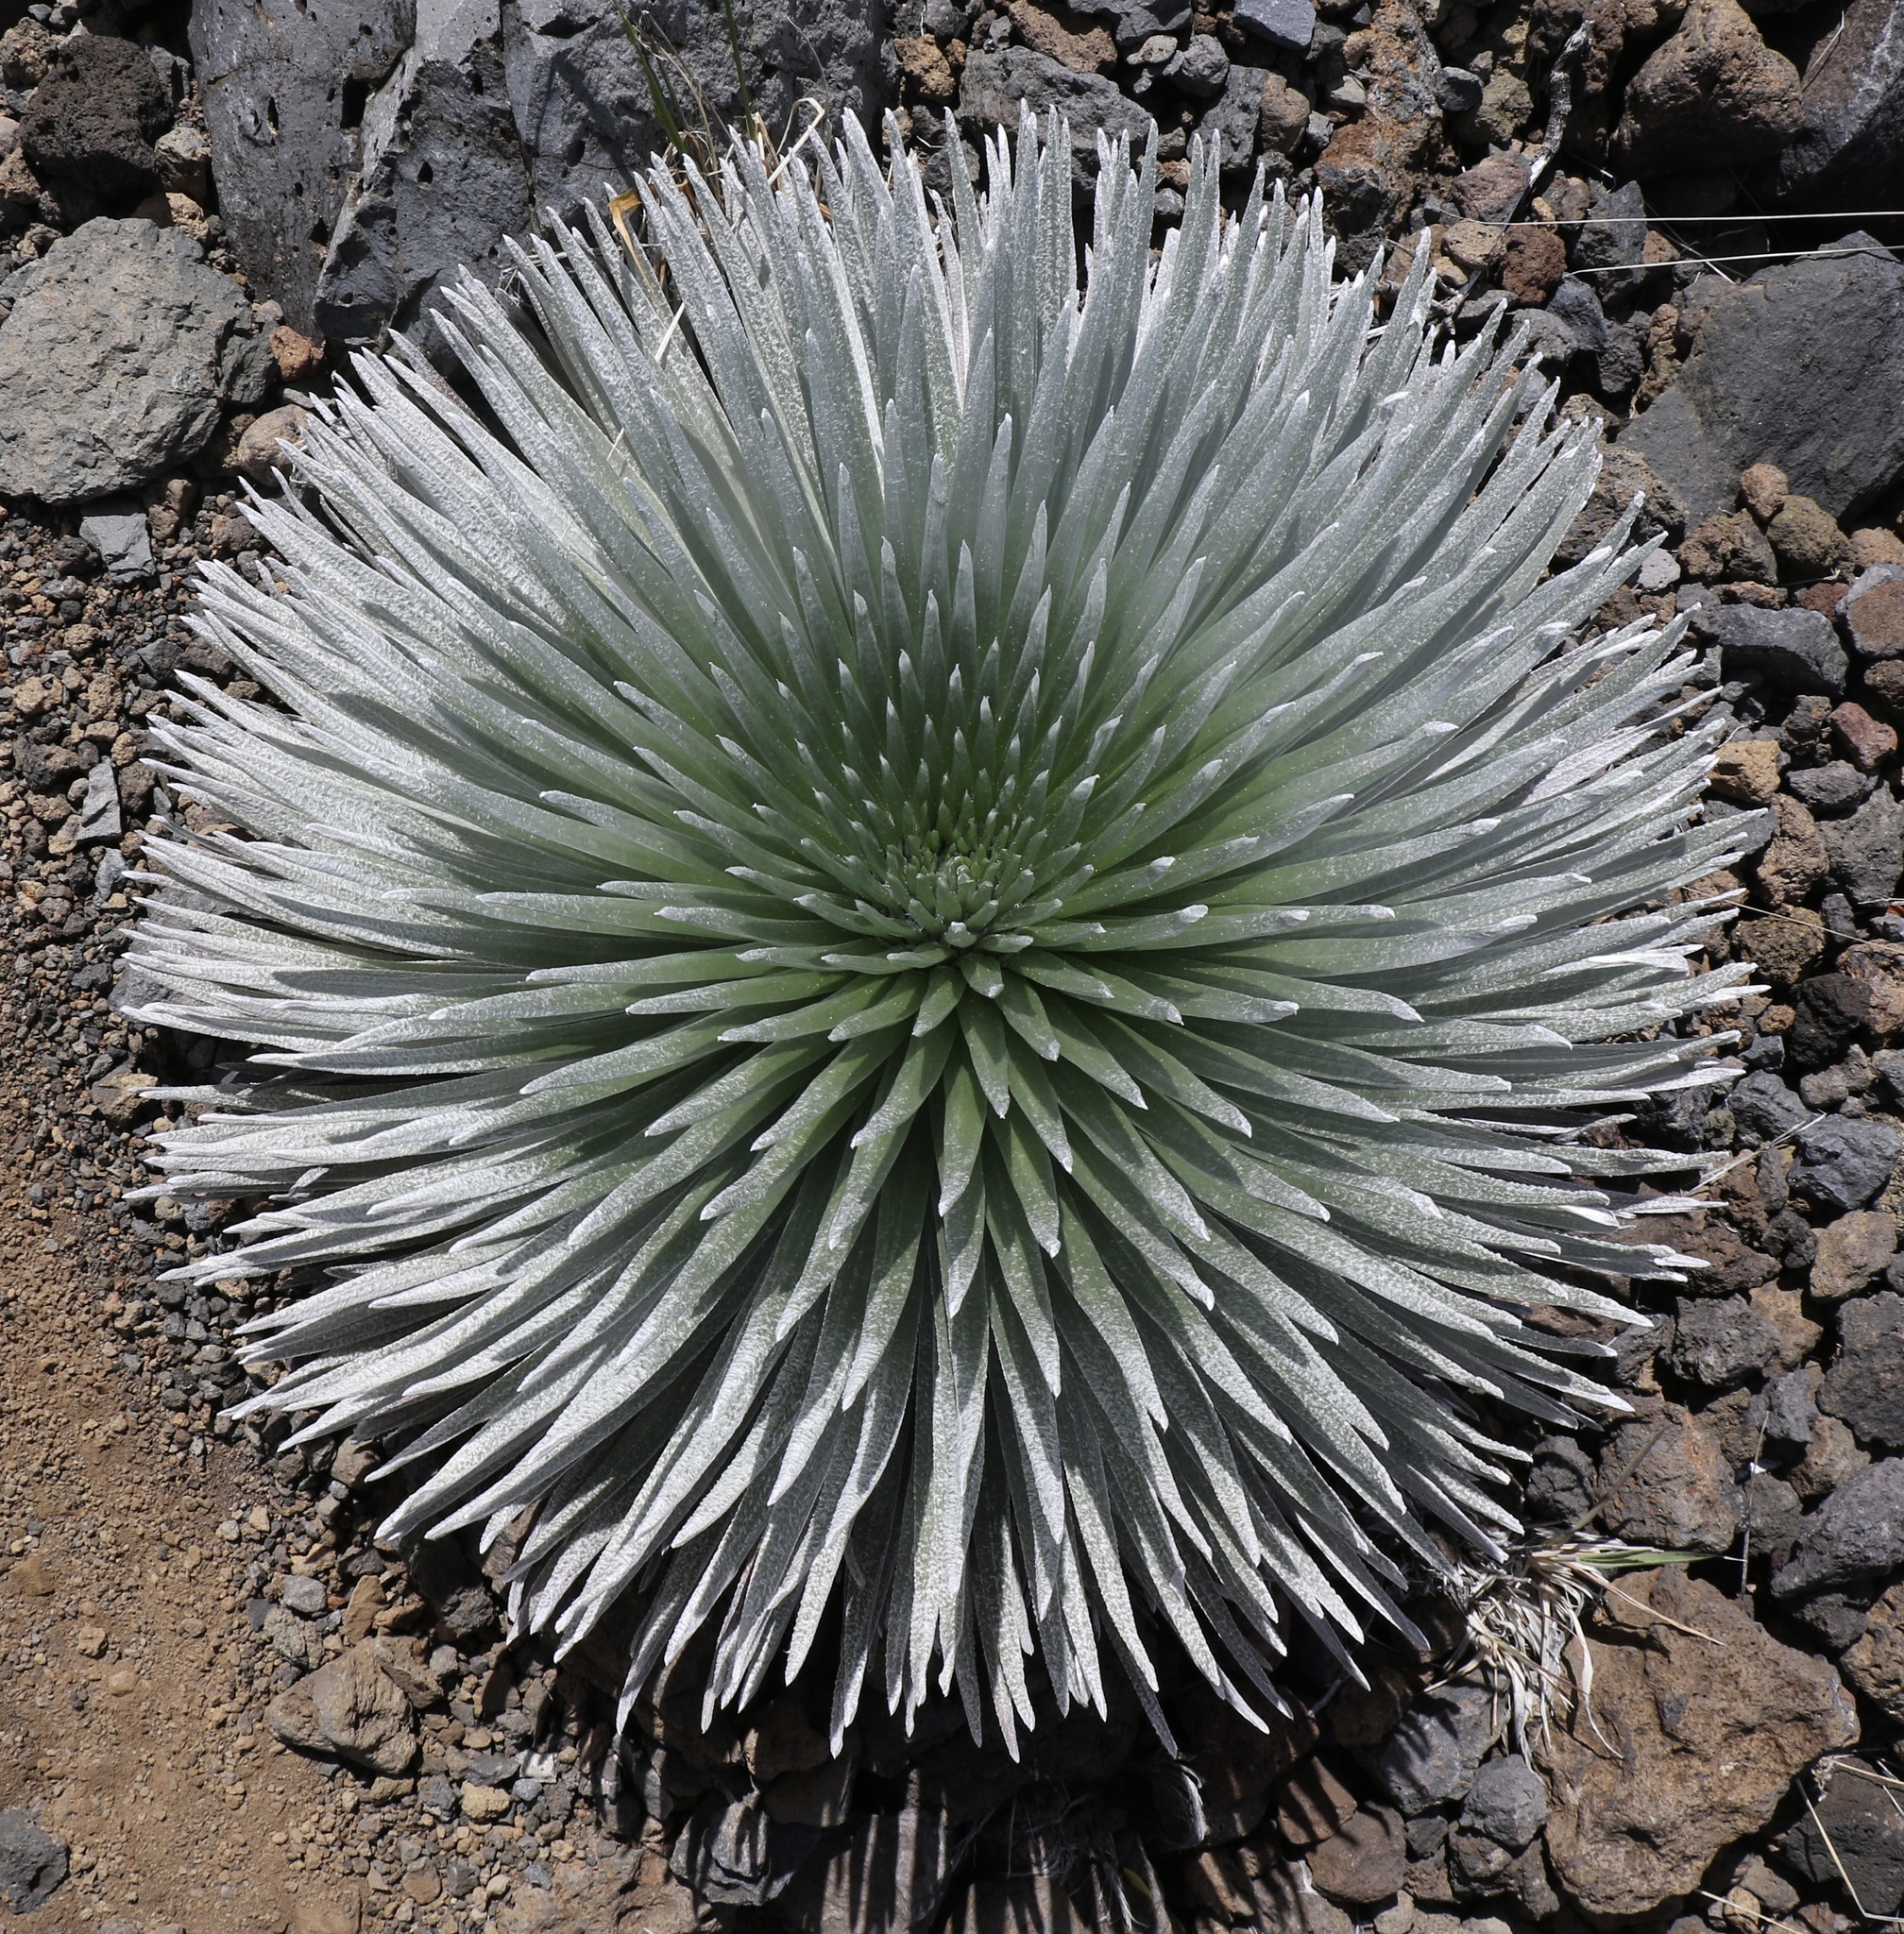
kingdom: Plantae
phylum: Tracheophyta
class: Magnoliopsida
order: Asterales
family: Asteraceae
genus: Argyroxiphium
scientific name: Argyroxiphium sandwicense
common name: Silversword
